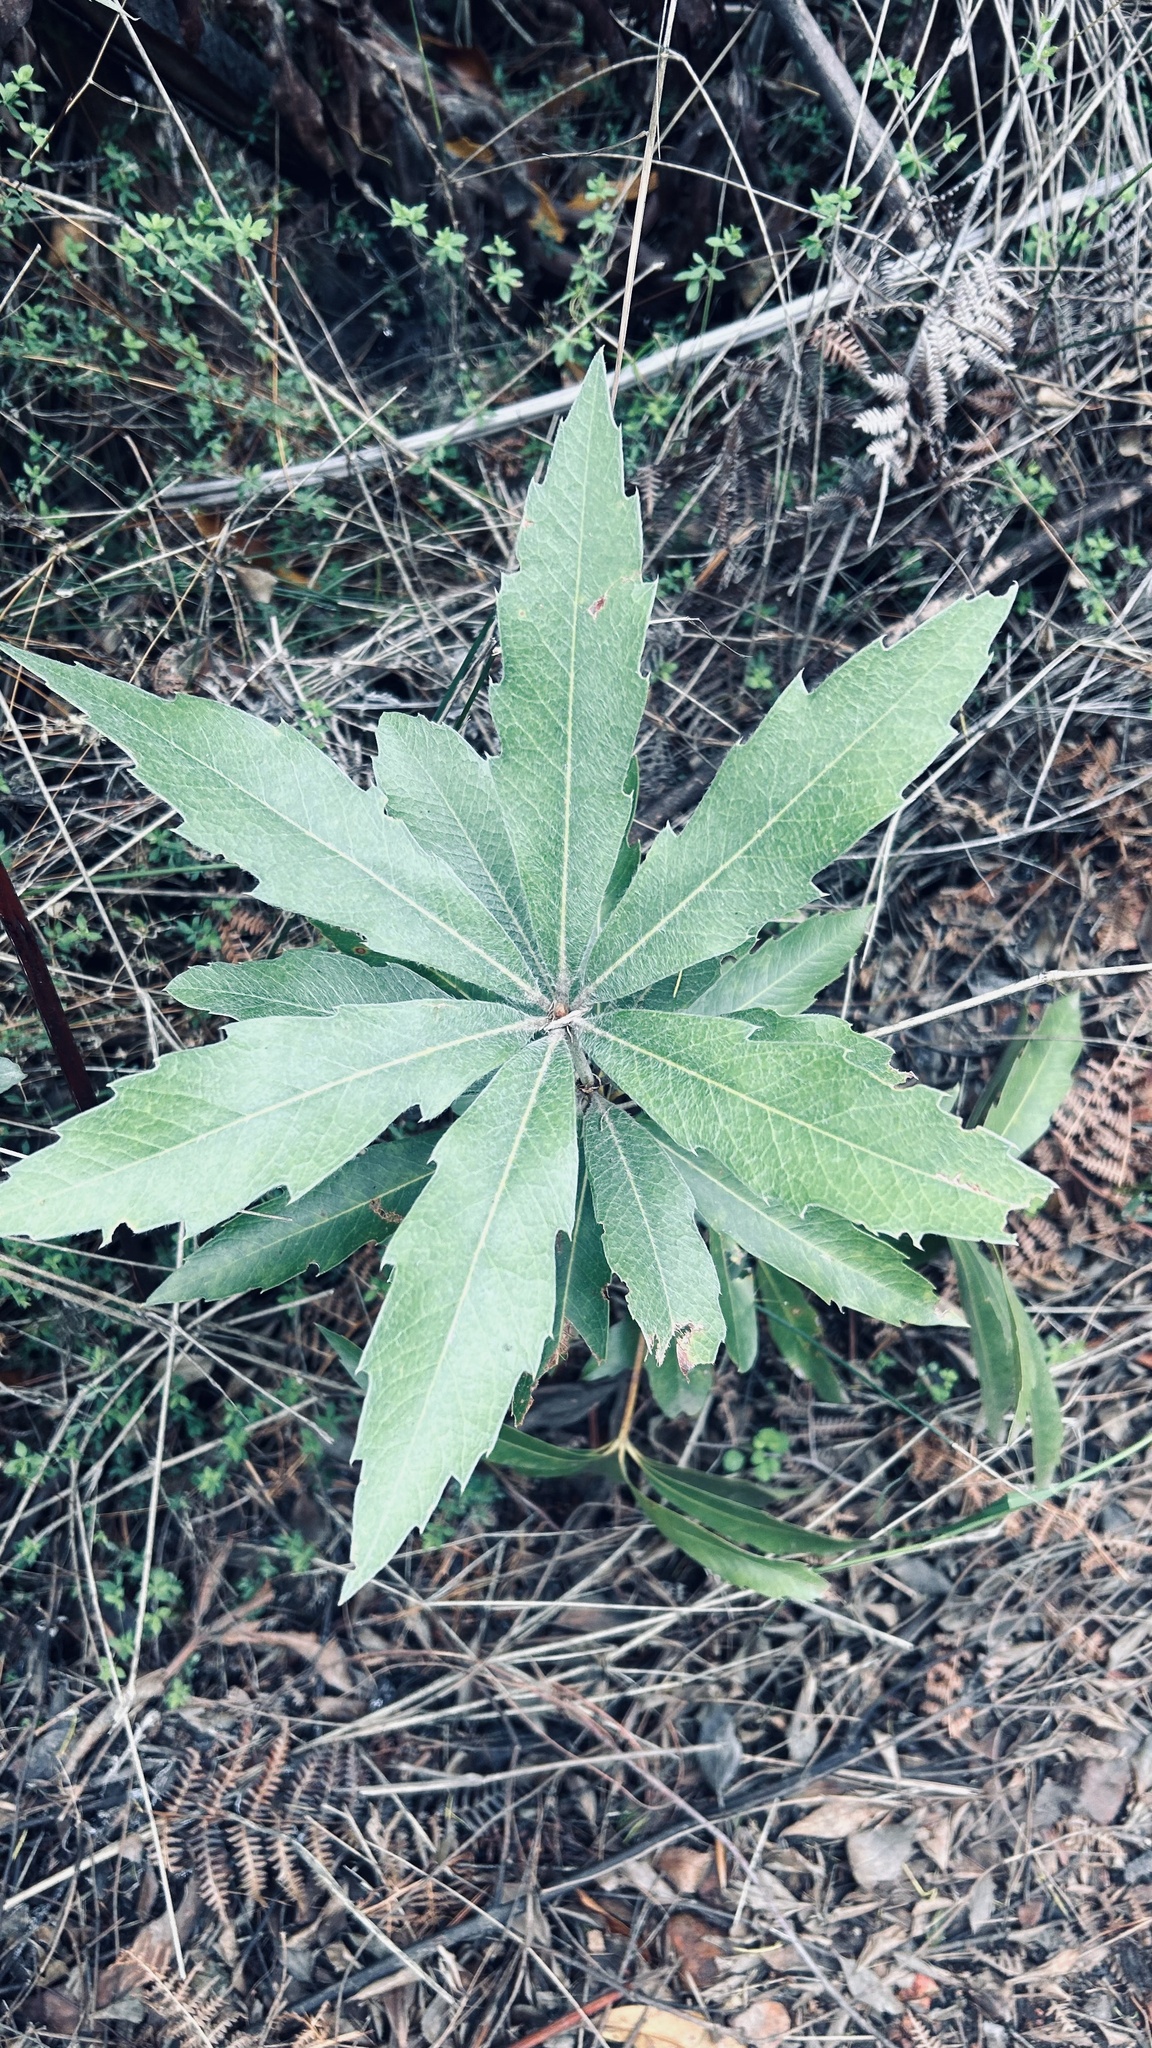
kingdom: Plantae
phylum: Tracheophyta
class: Magnoliopsida
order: Proteales
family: Proteaceae
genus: Brabejum
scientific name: Brabejum stellatifolium
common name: Wild almond
